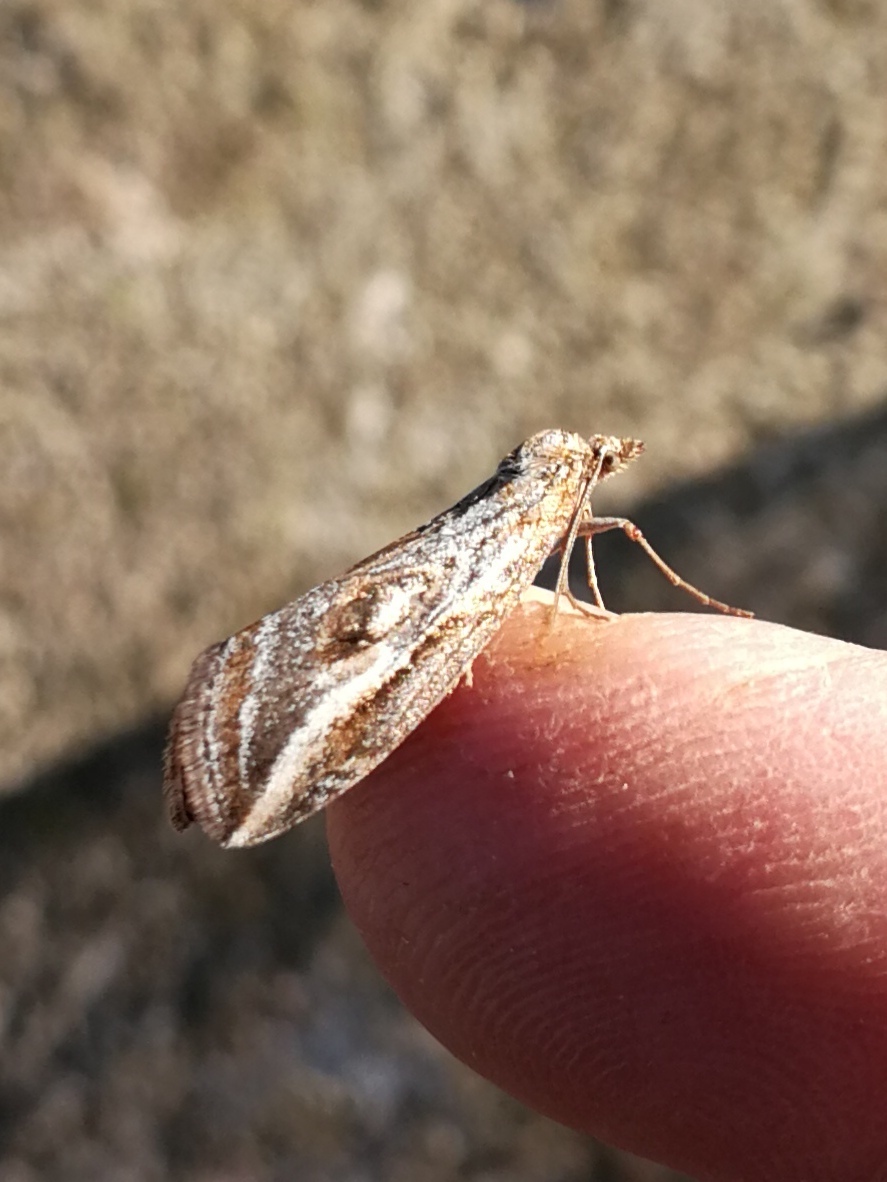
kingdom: Animalia
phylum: Arthropoda
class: Insecta
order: Lepidoptera
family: Geometridae
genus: Chesias
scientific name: Chesias legatella
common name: Streak
